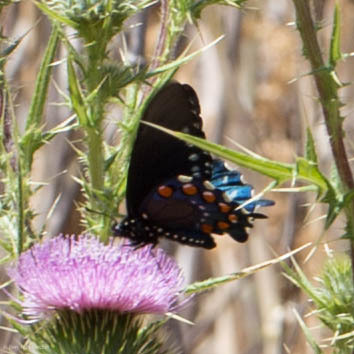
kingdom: Animalia
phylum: Arthropoda
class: Insecta
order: Lepidoptera
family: Papilionidae
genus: Battus
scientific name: Battus philenor
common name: Pipevine swallowtail
